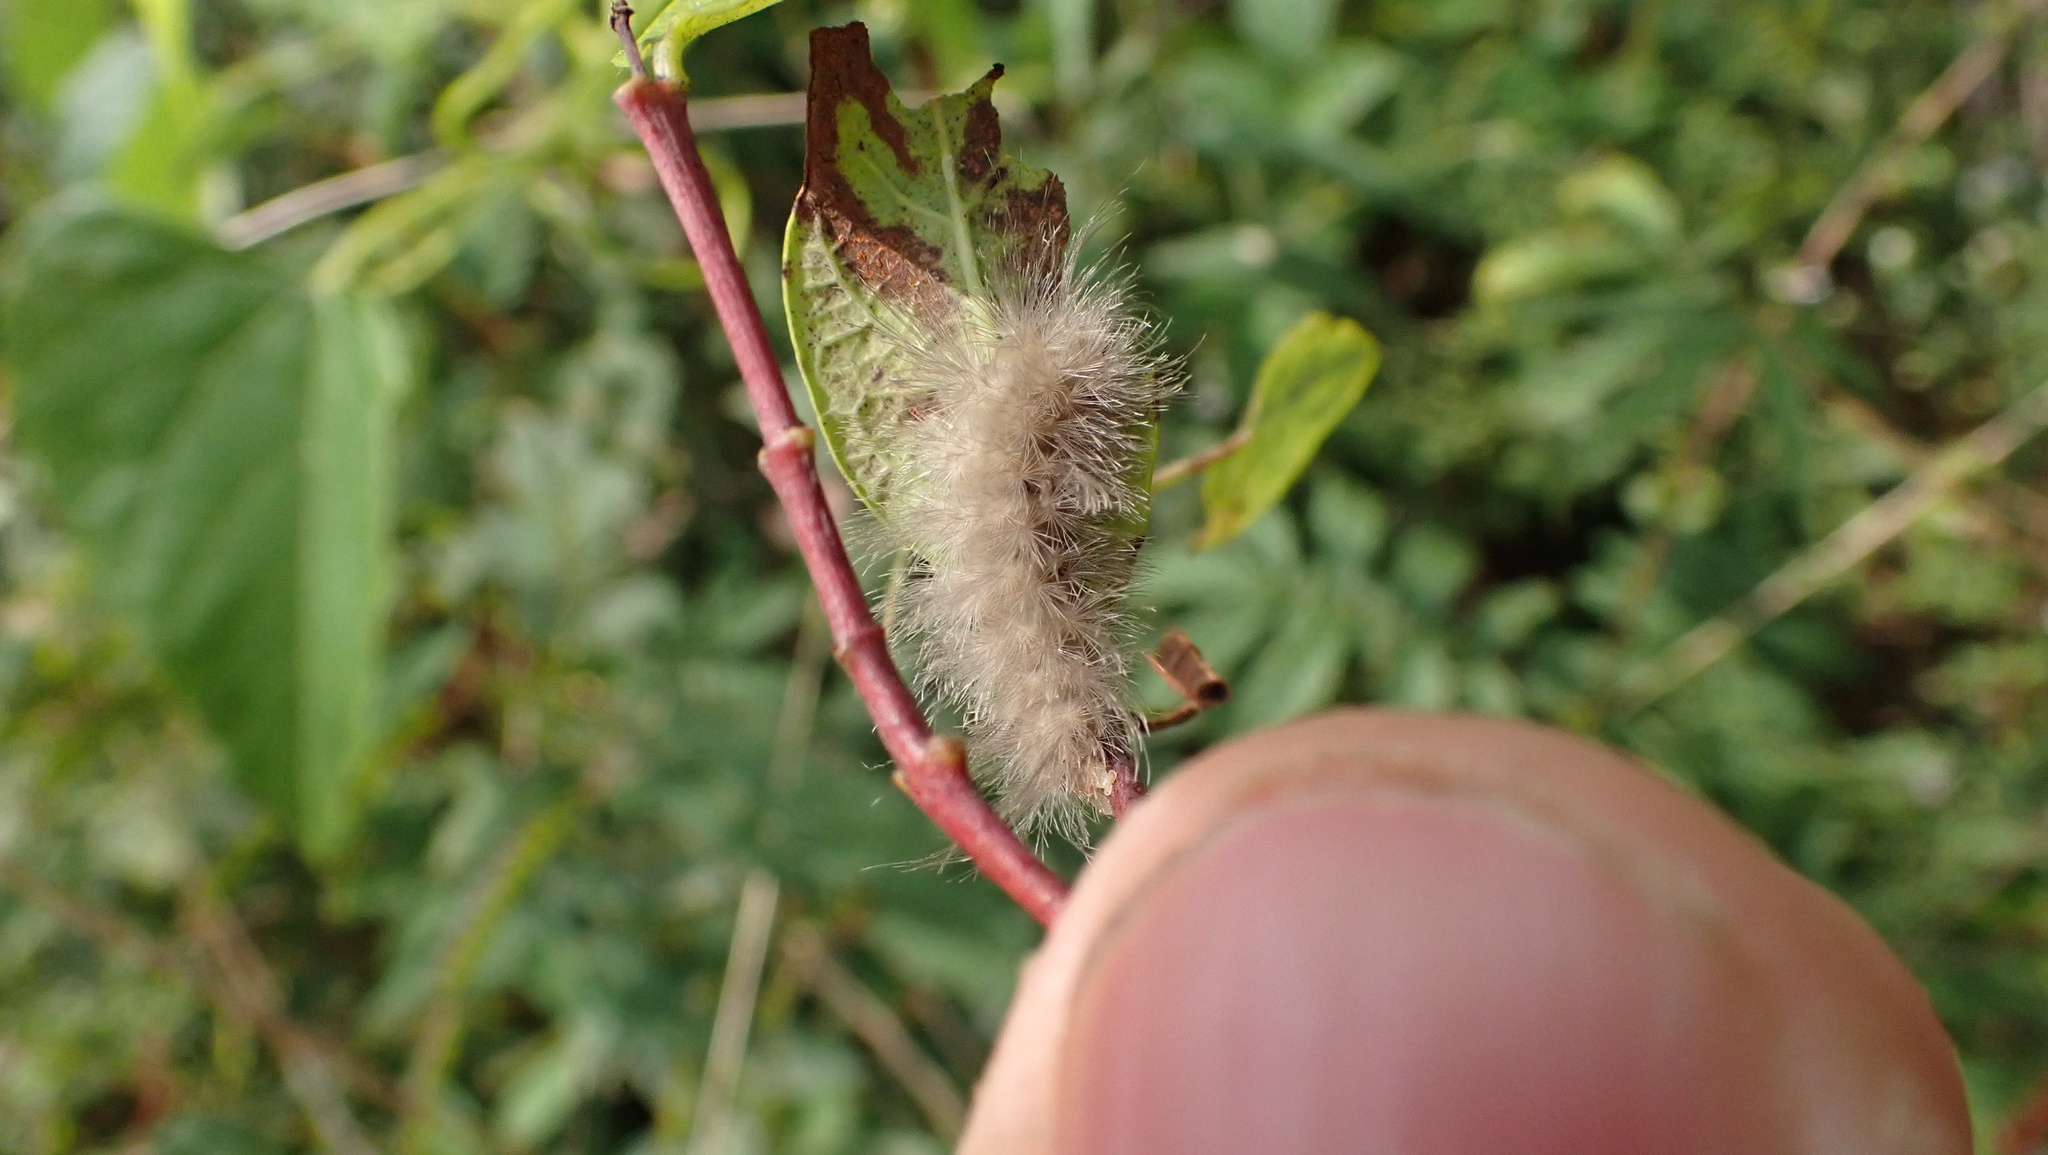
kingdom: Animalia
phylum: Arthropoda
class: Insecta
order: Lepidoptera
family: Erebidae
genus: Cycnia
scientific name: Cycnia tenera
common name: Delicate cycnia moth
